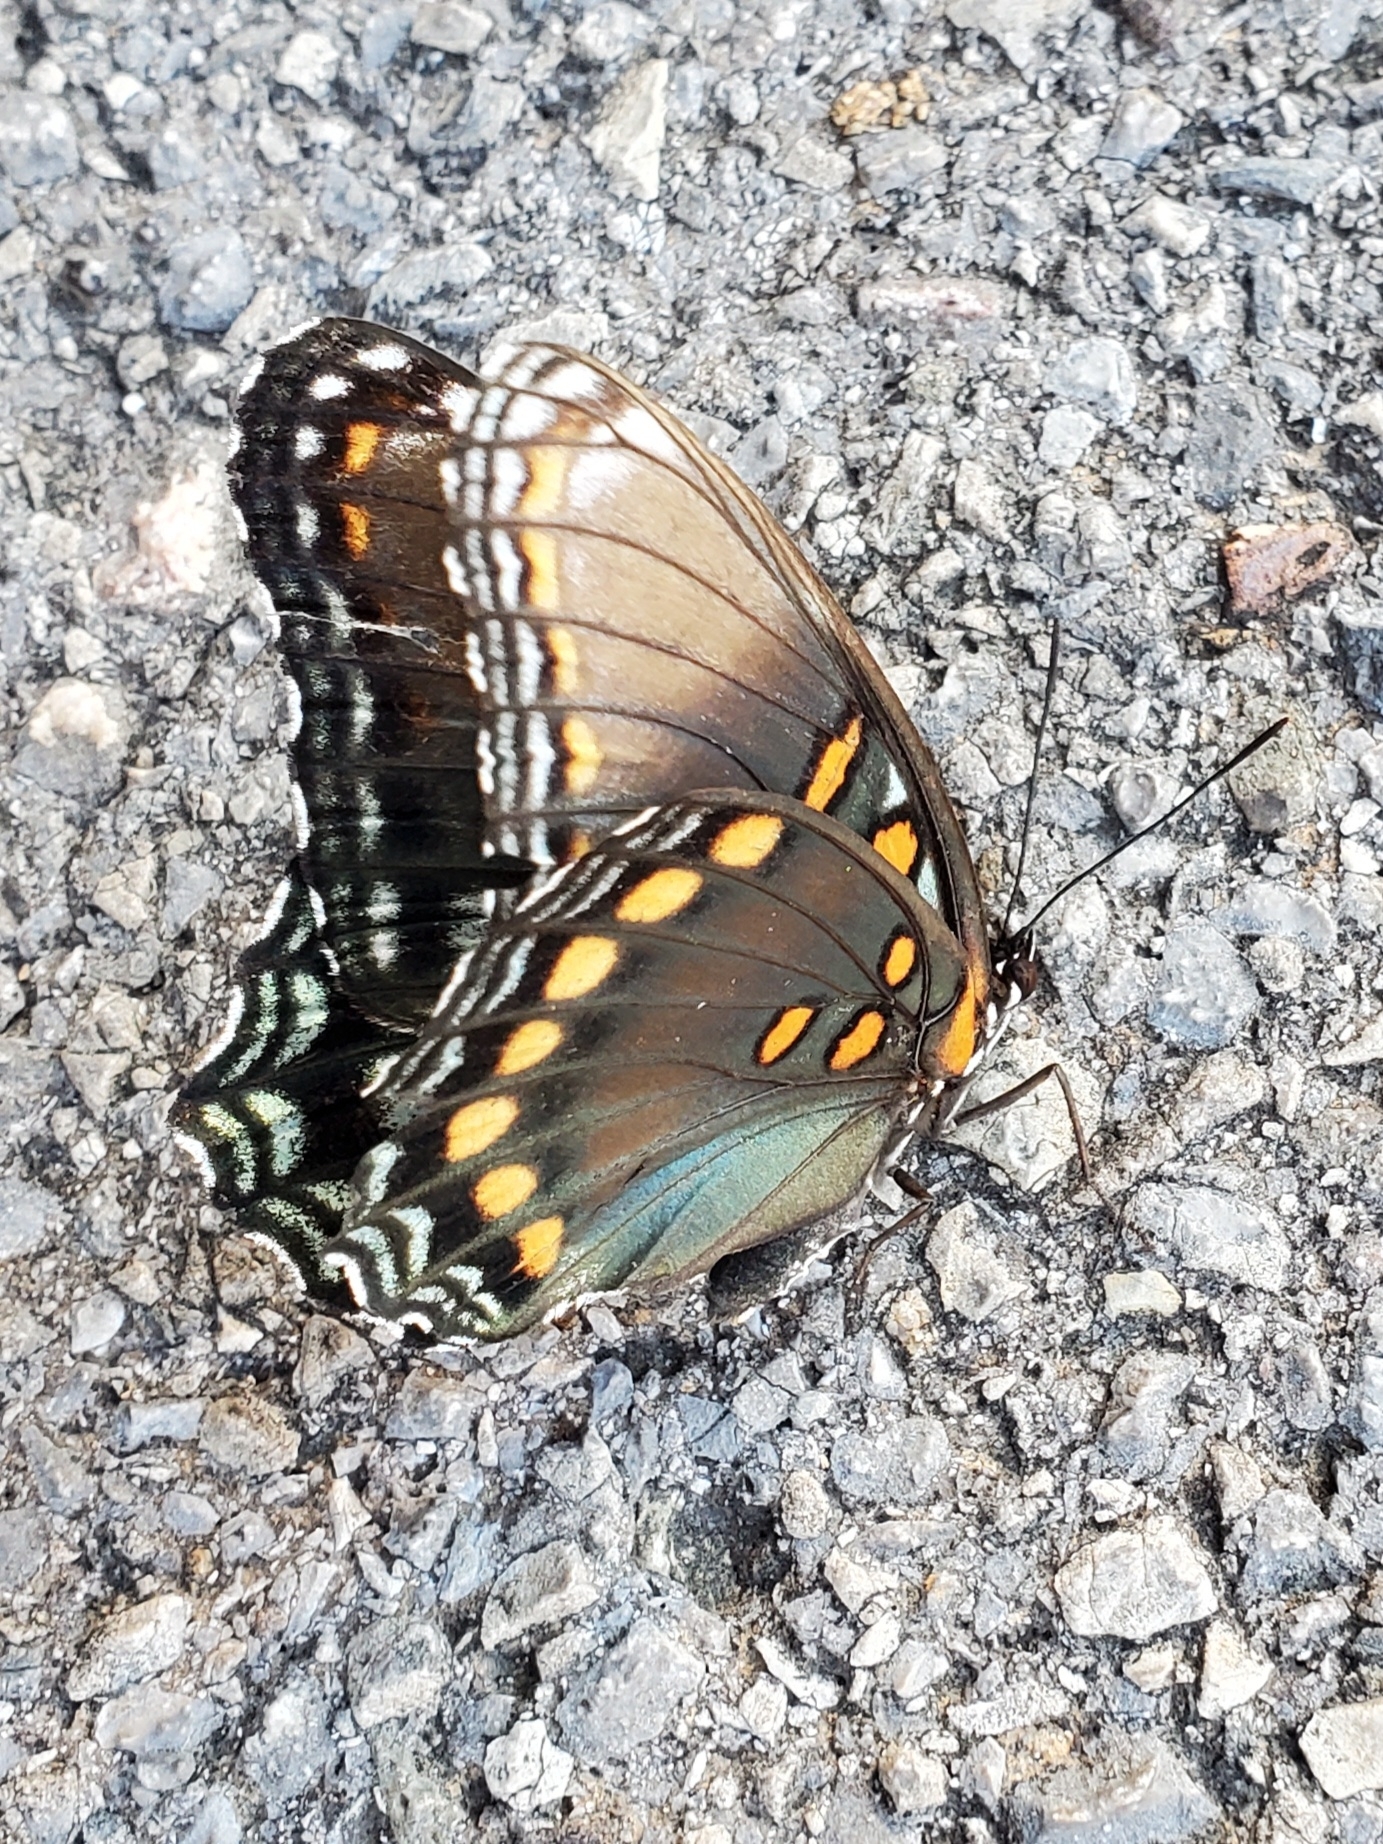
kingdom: Animalia
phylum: Arthropoda
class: Insecta
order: Lepidoptera
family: Nymphalidae
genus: Limenitis
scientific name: Limenitis astyanax
